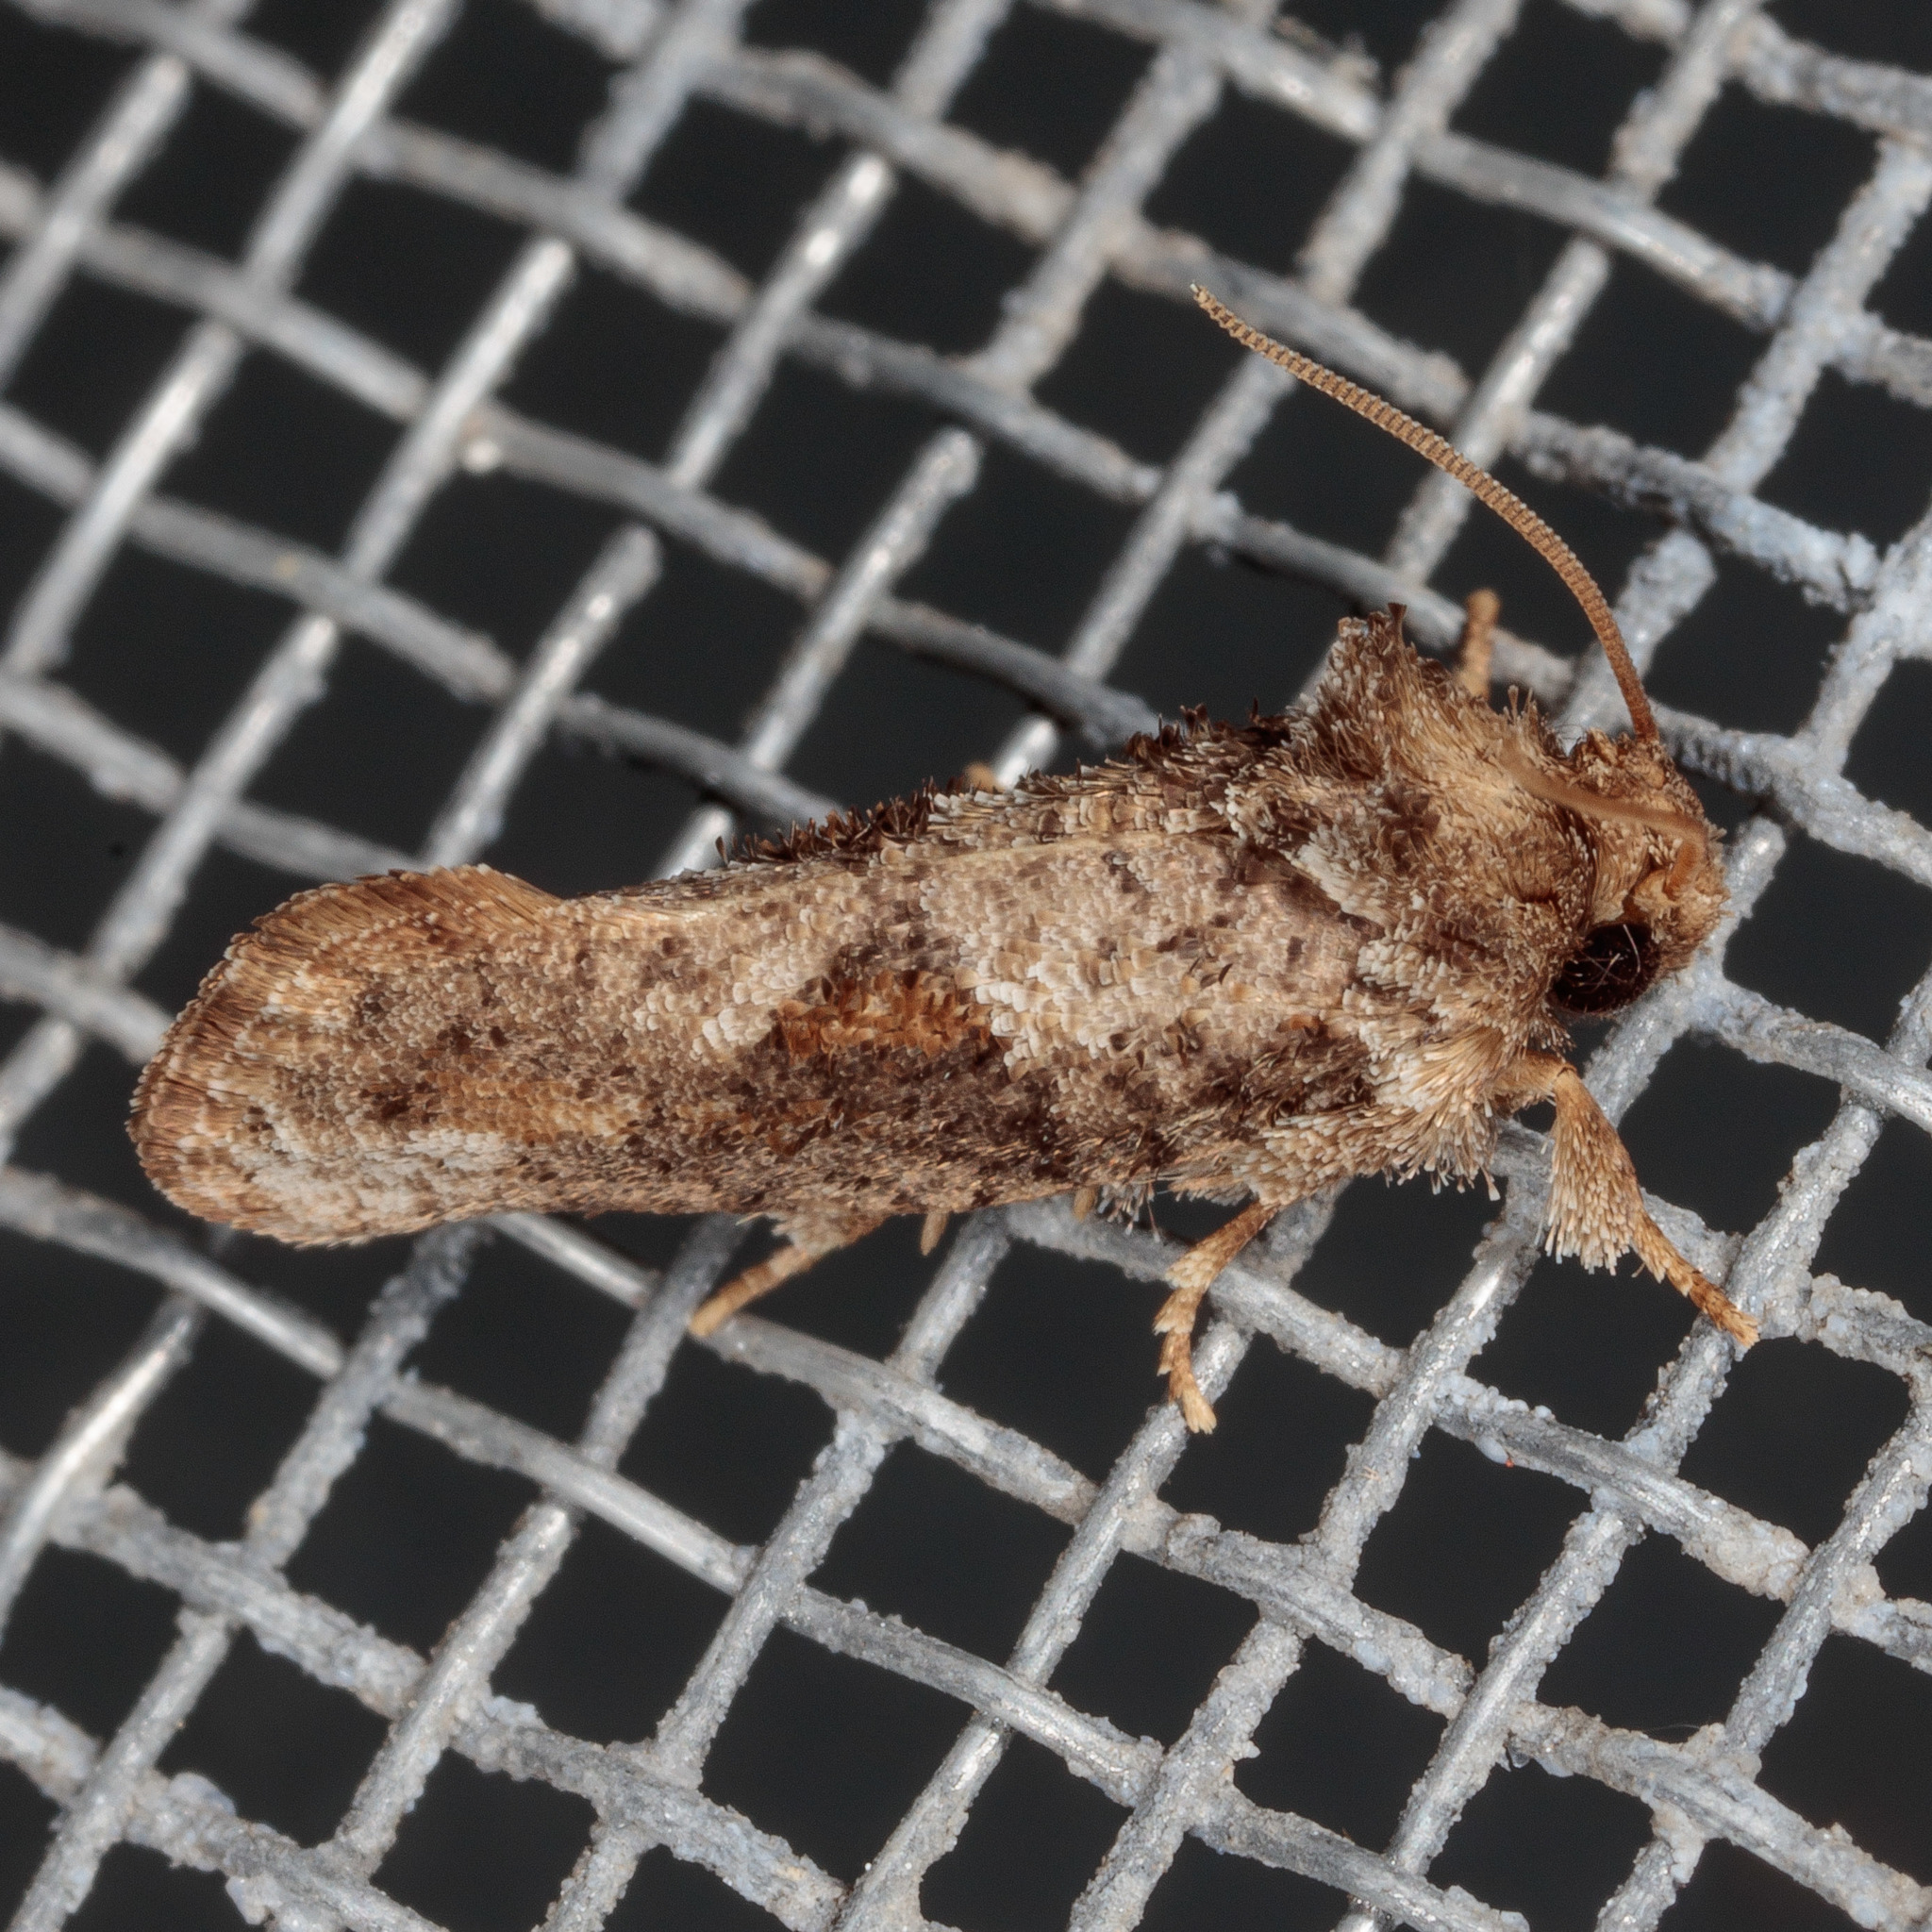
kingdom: Animalia
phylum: Arthropoda
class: Insecta
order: Lepidoptera
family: Tineidae
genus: Acrolophus
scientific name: Acrolophus piger
